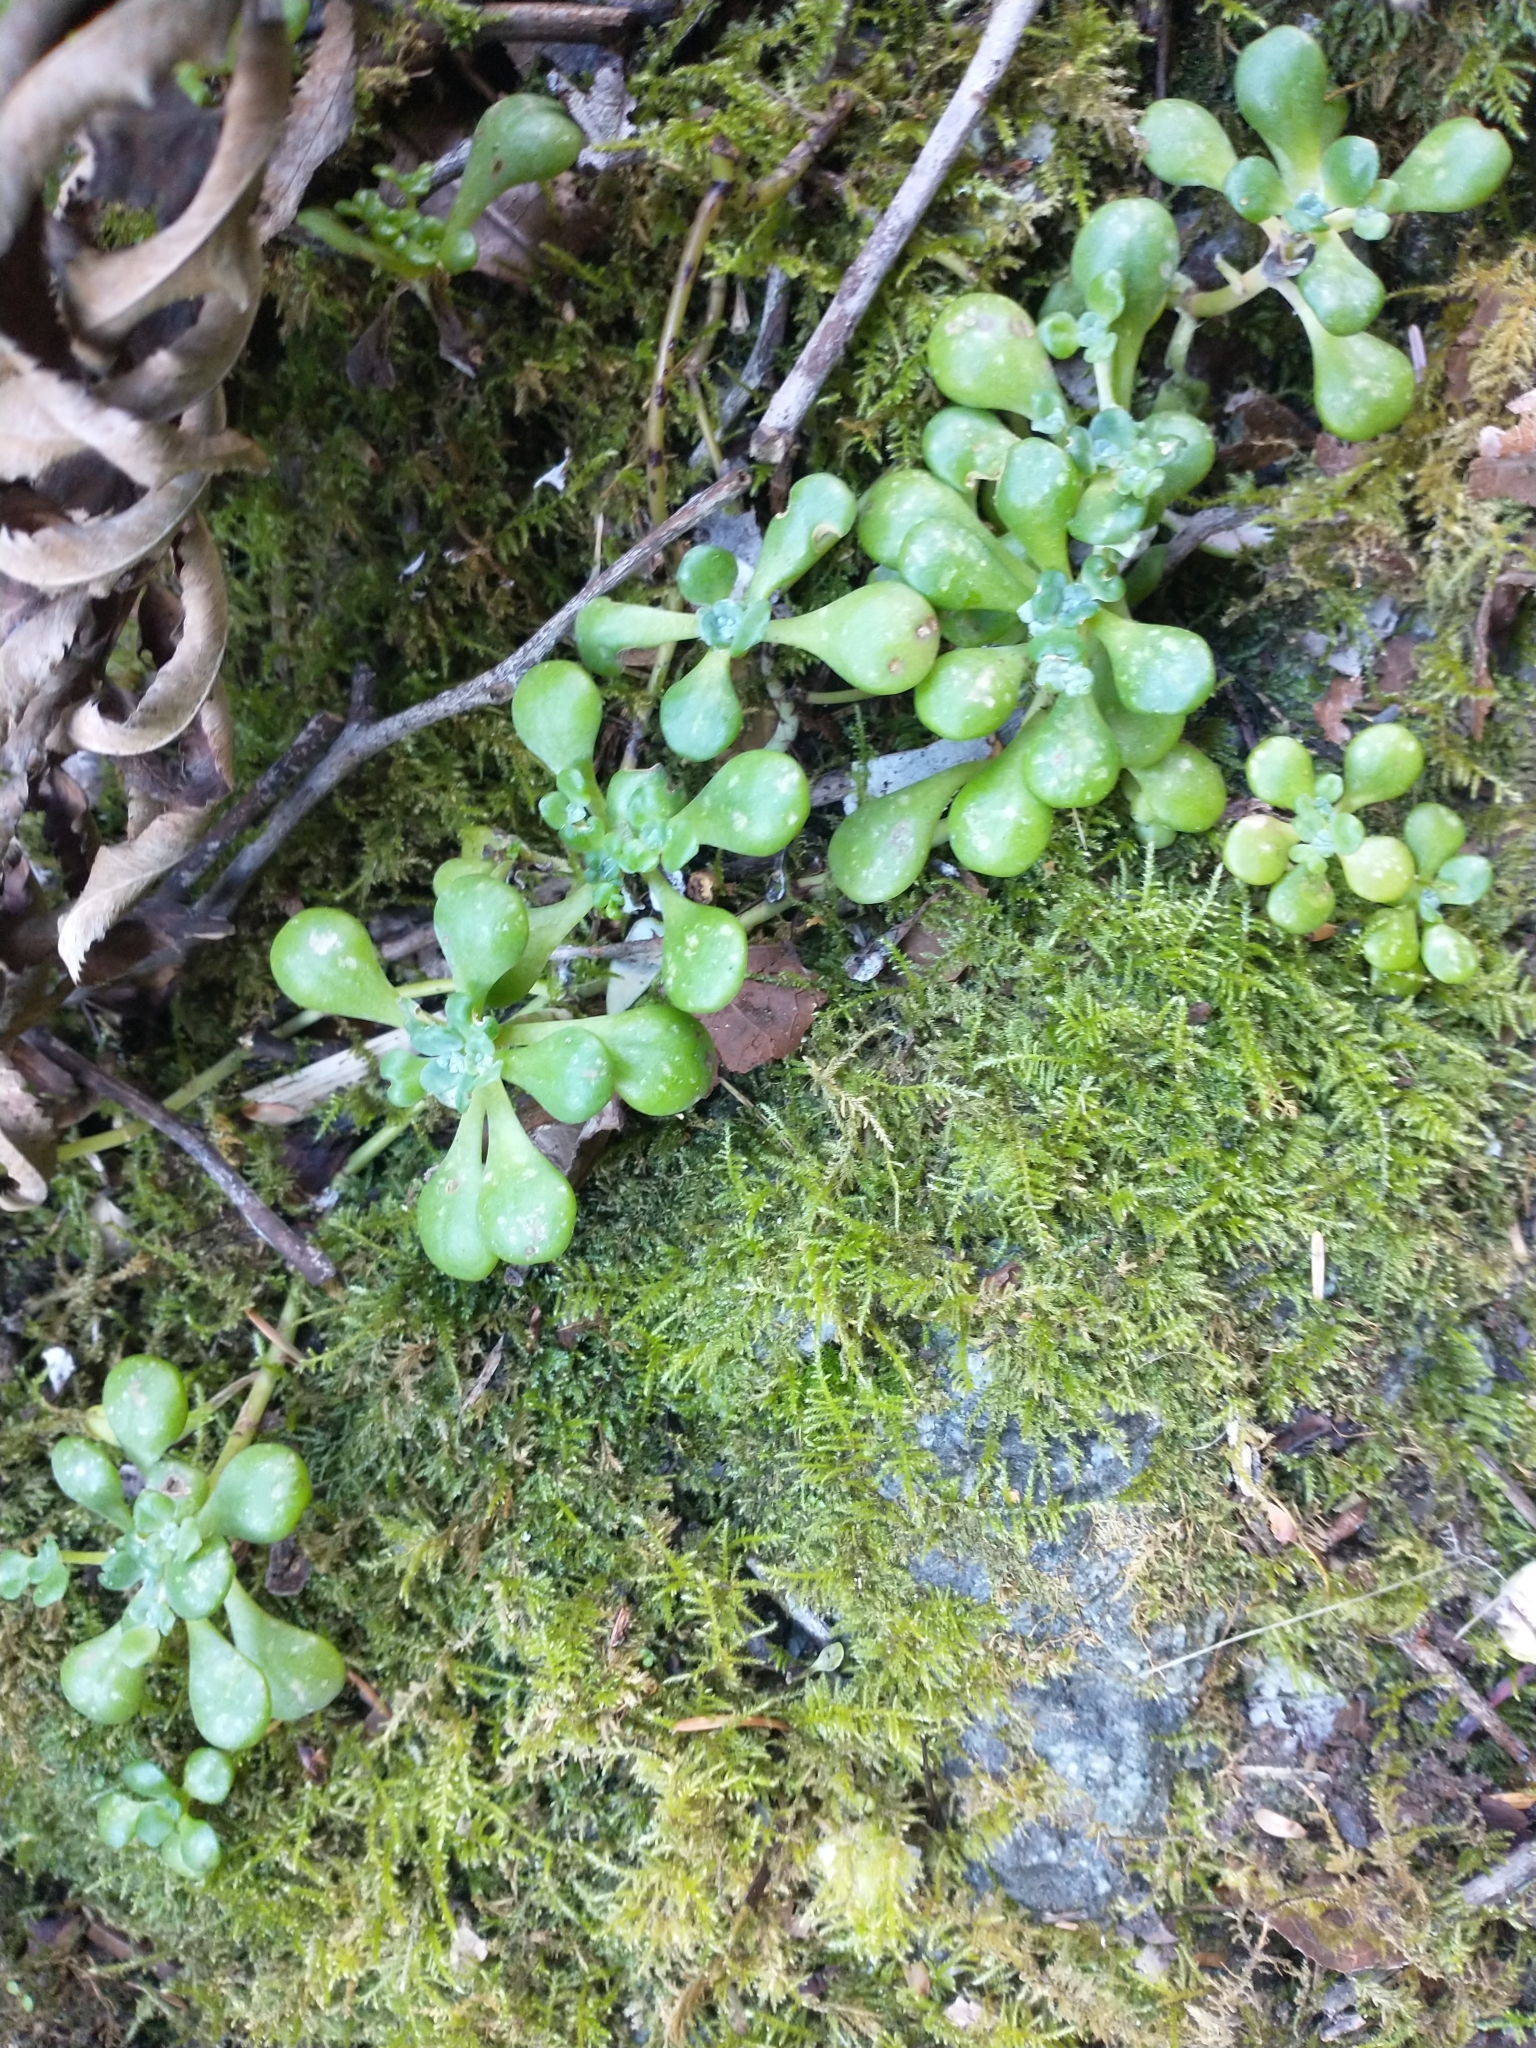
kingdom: Plantae
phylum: Tracheophyta
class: Magnoliopsida
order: Saxifragales
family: Crassulaceae
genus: Sedum
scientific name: Sedum spathulifolium
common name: Colorado stonecrop
